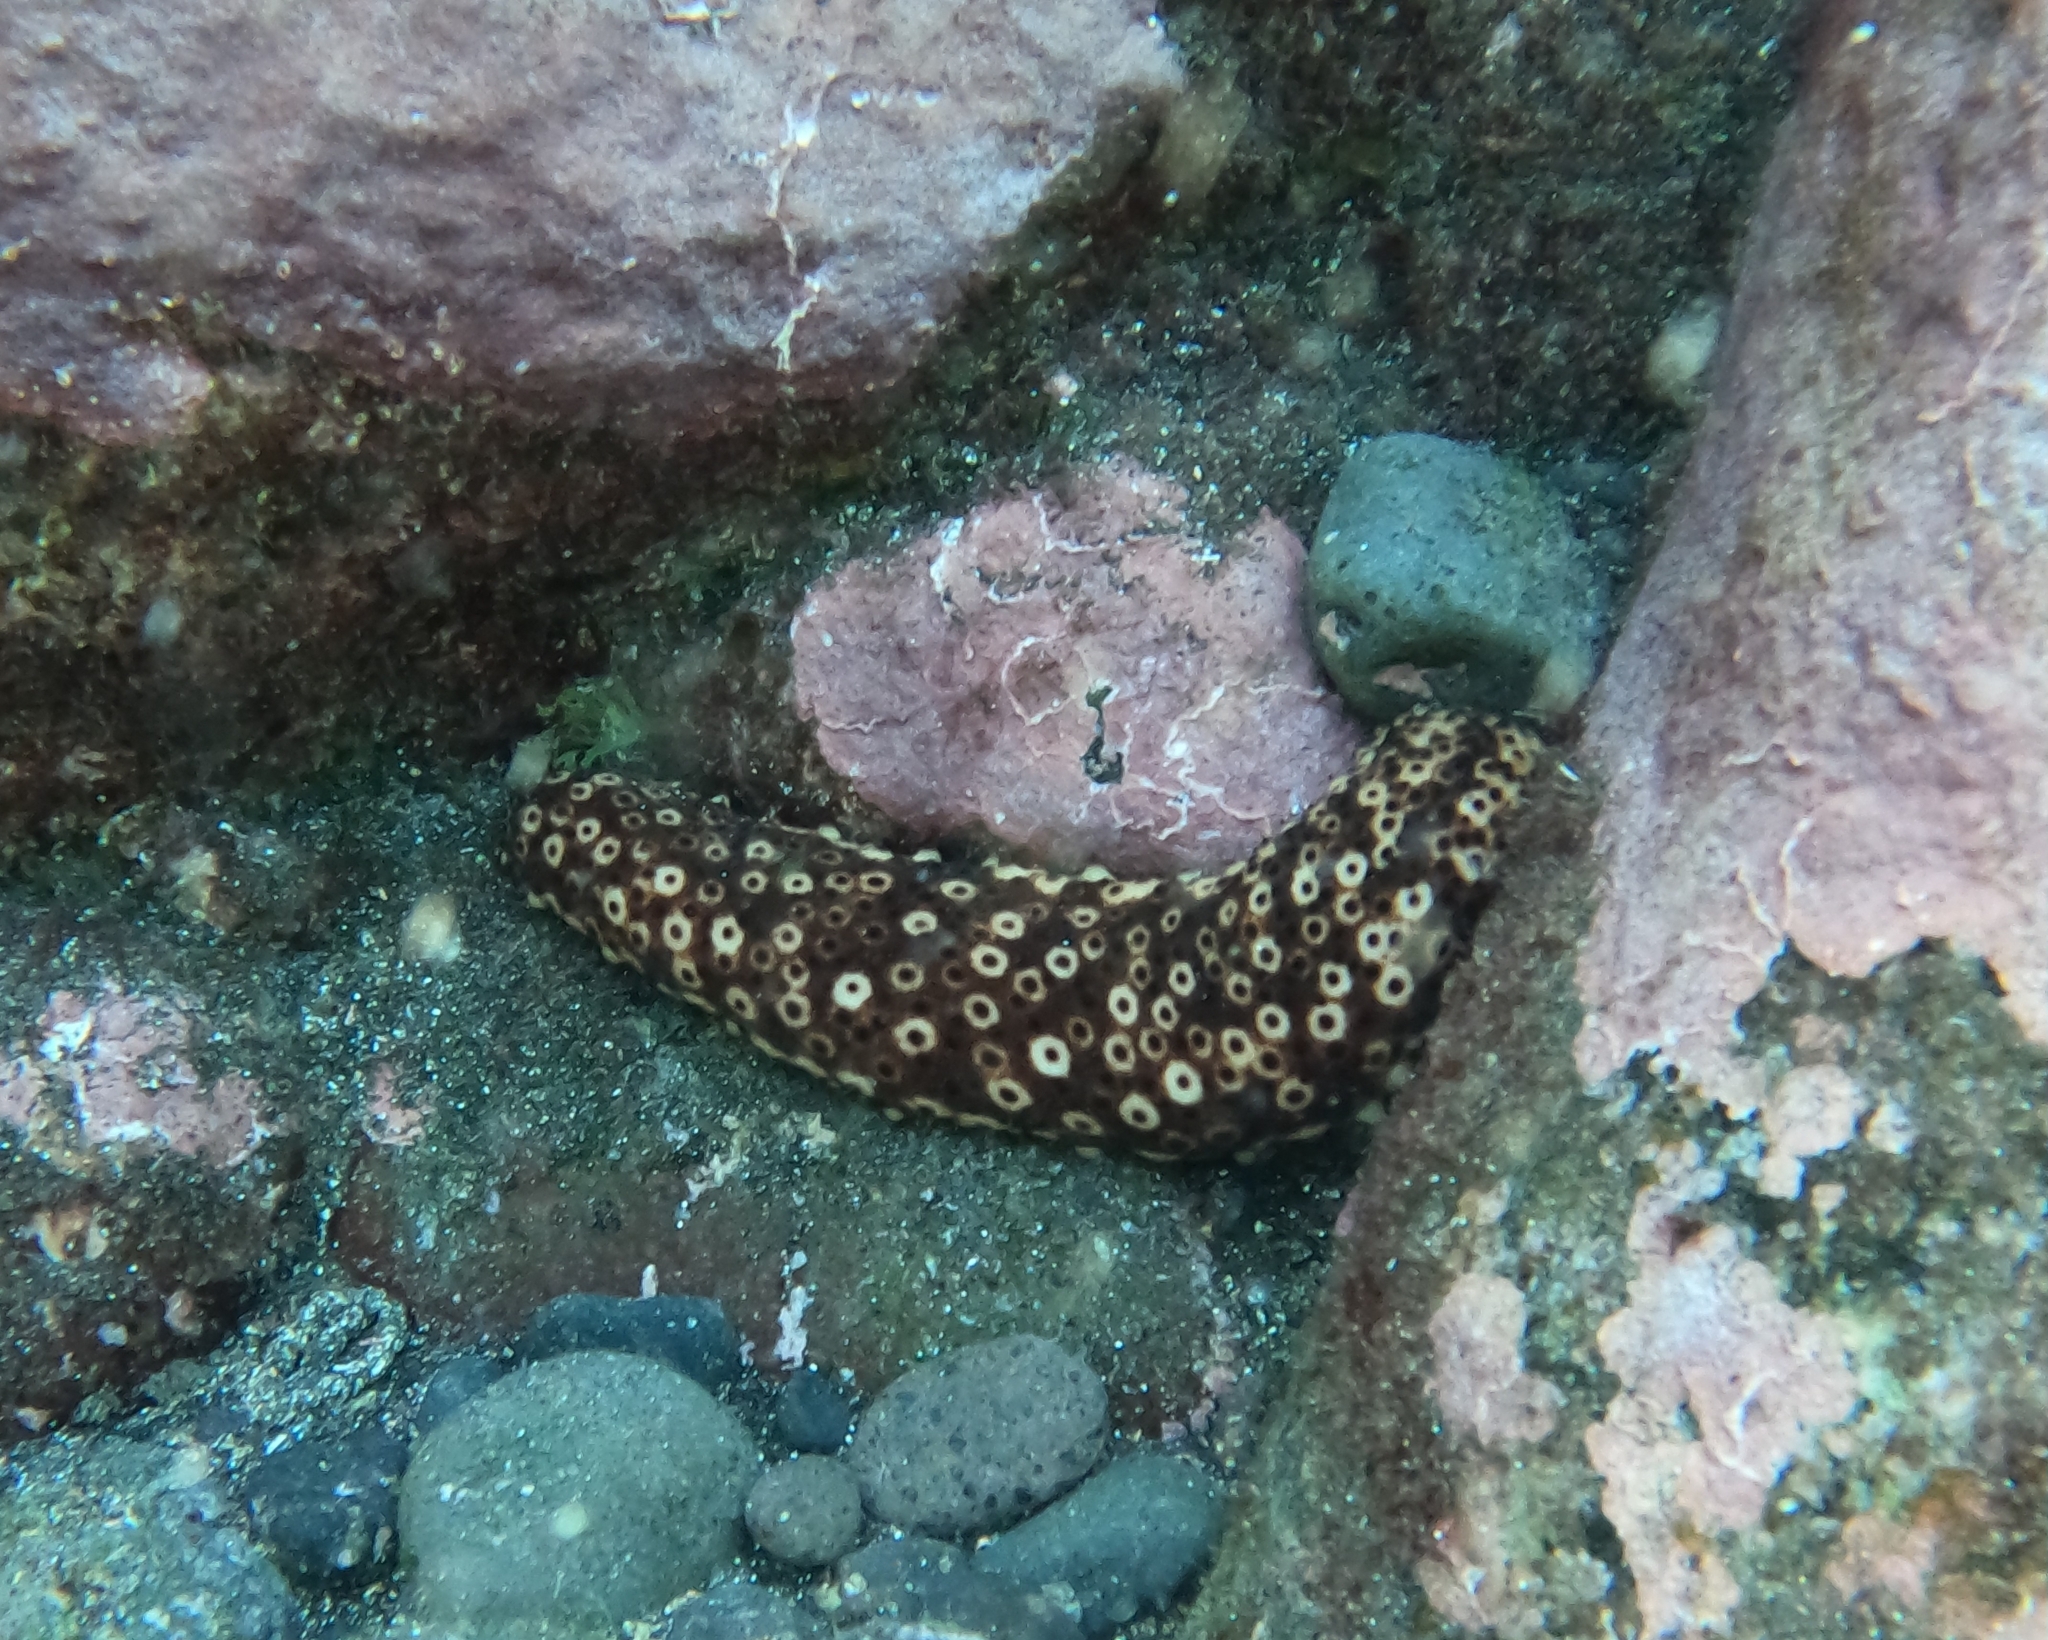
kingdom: Animalia
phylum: Echinodermata
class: Holothuroidea
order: Holothuriida
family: Holothuriidae
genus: Holothuria
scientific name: Holothuria sanctori
